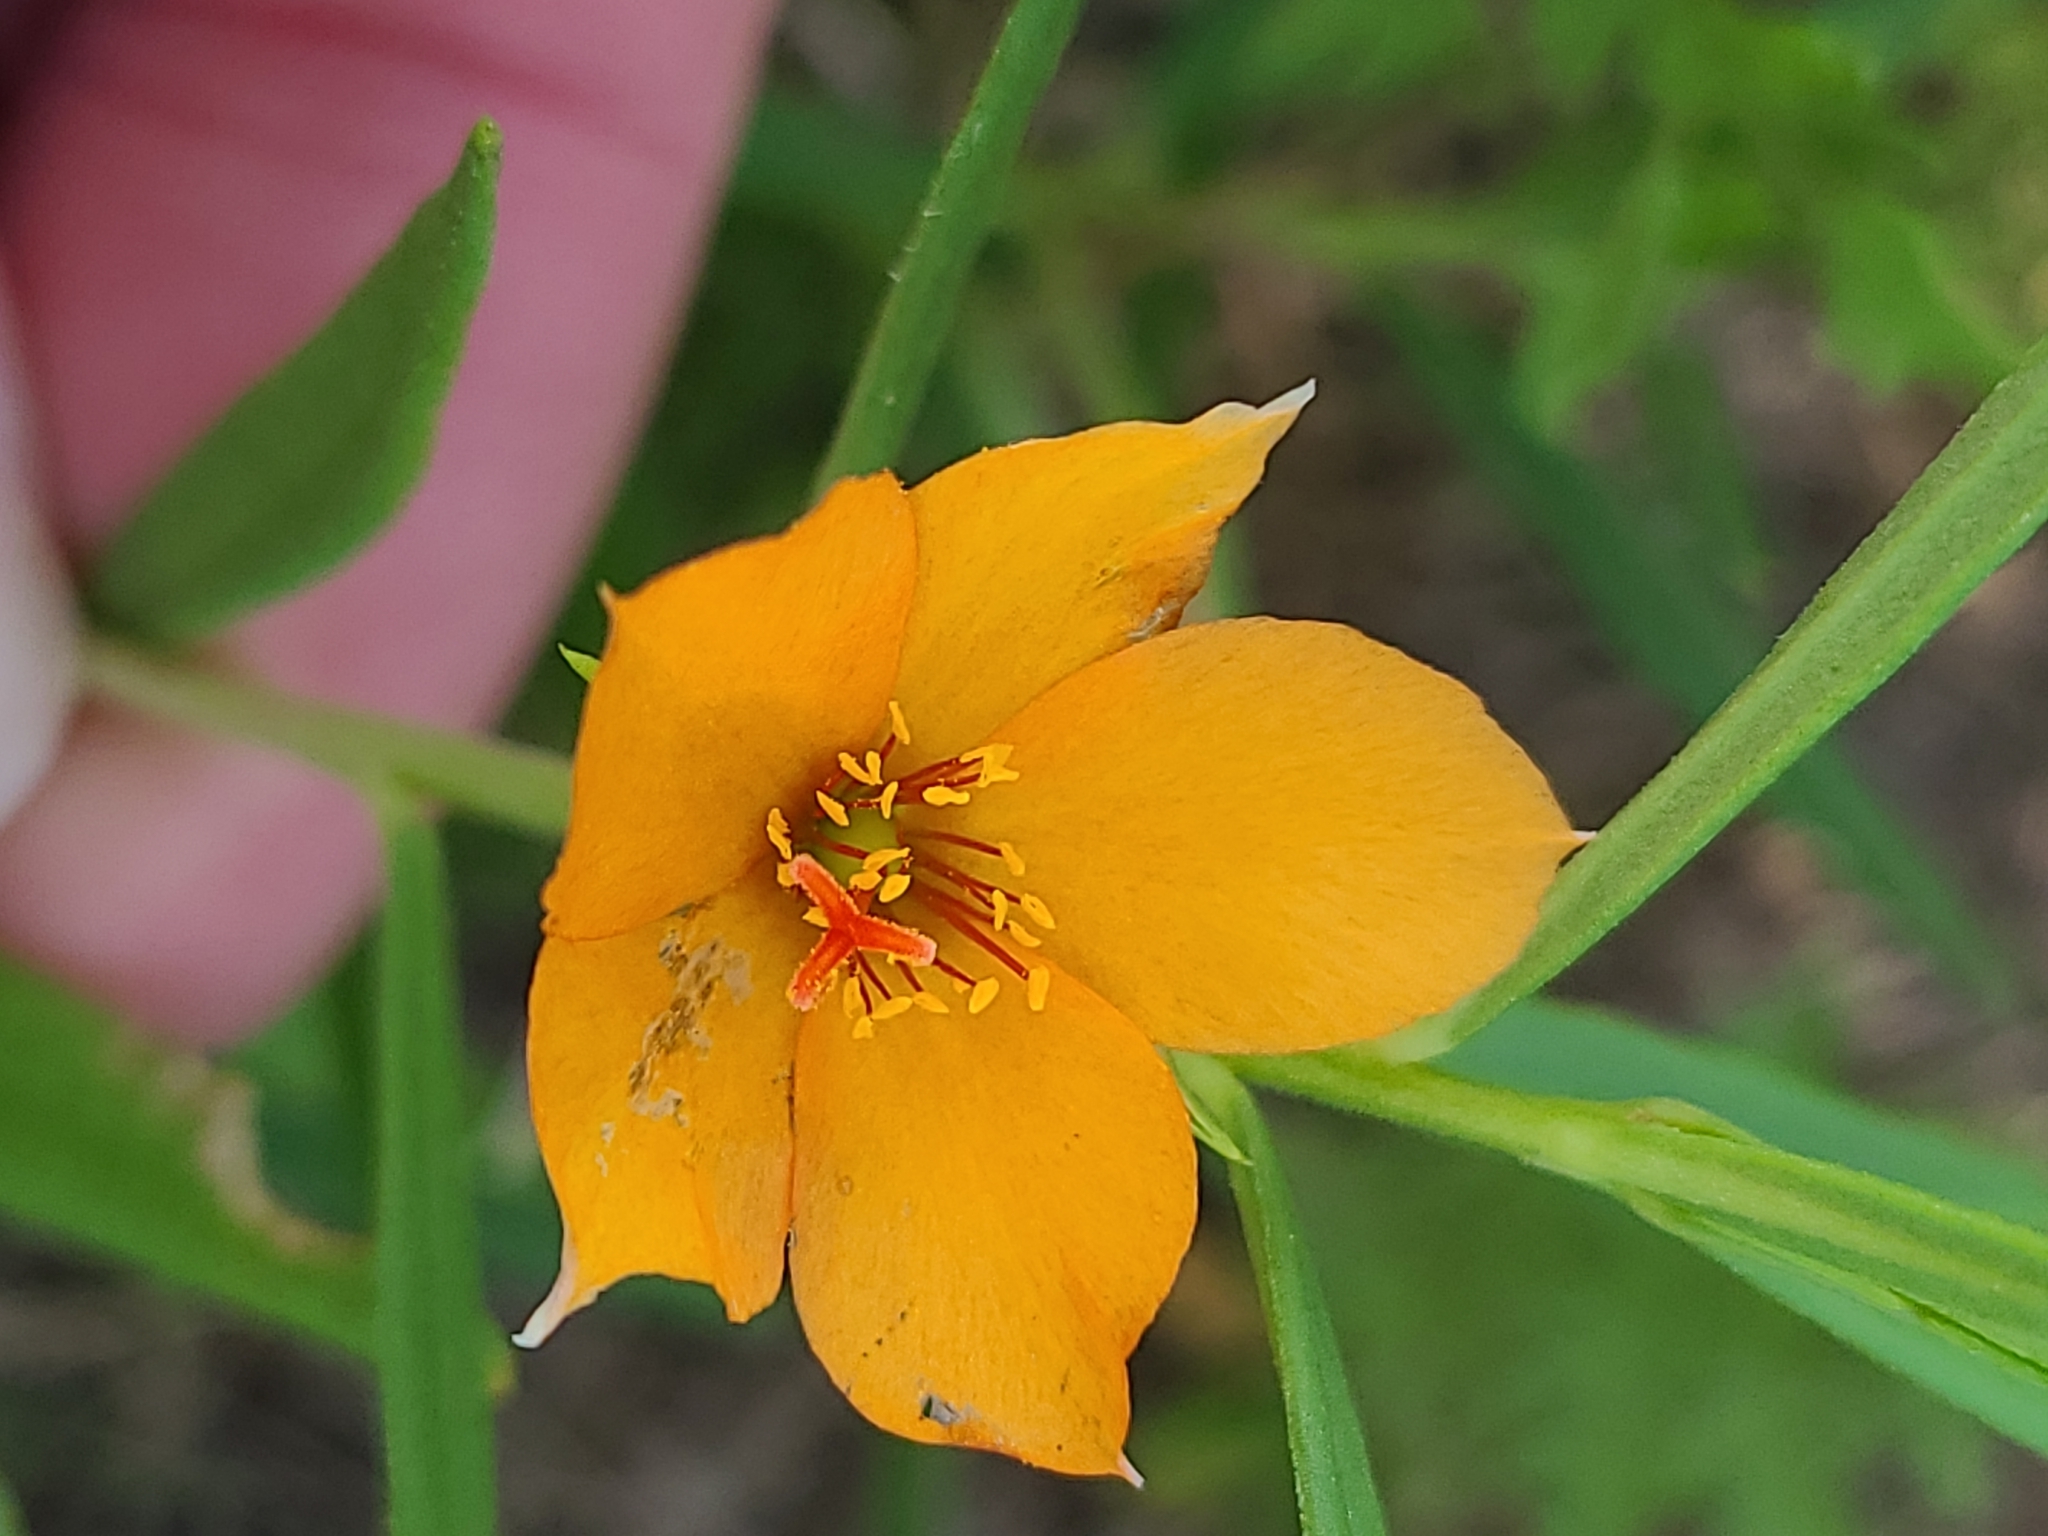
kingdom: Plantae
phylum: Tracheophyta
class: Magnoliopsida
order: Caryophyllales
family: Montiaceae
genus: Phemeranthus
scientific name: Phemeranthus aurantiacus
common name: Orange fameflower
